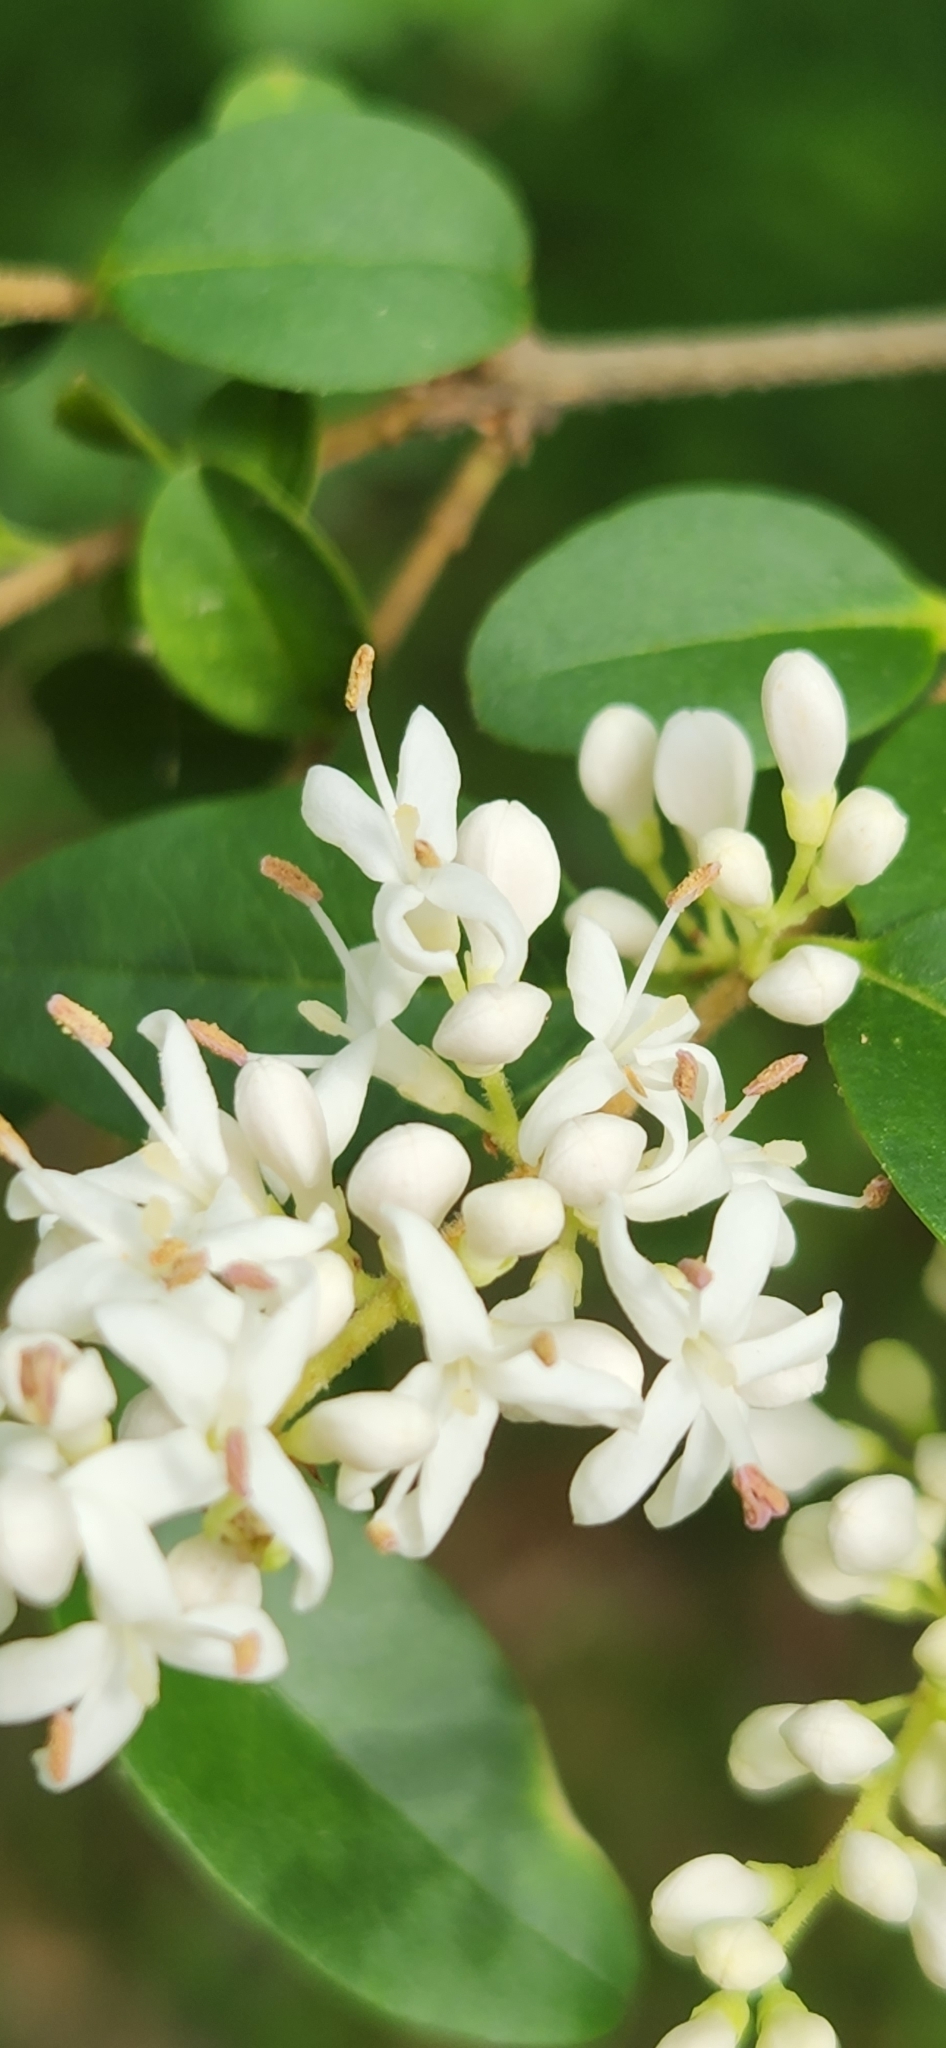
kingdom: Plantae
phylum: Tracheophyta
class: Magnoliopsida
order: Lamiales
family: Oleaceae
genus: Ligustrum
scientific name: Ligustrum sinense
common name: Chinese privet
